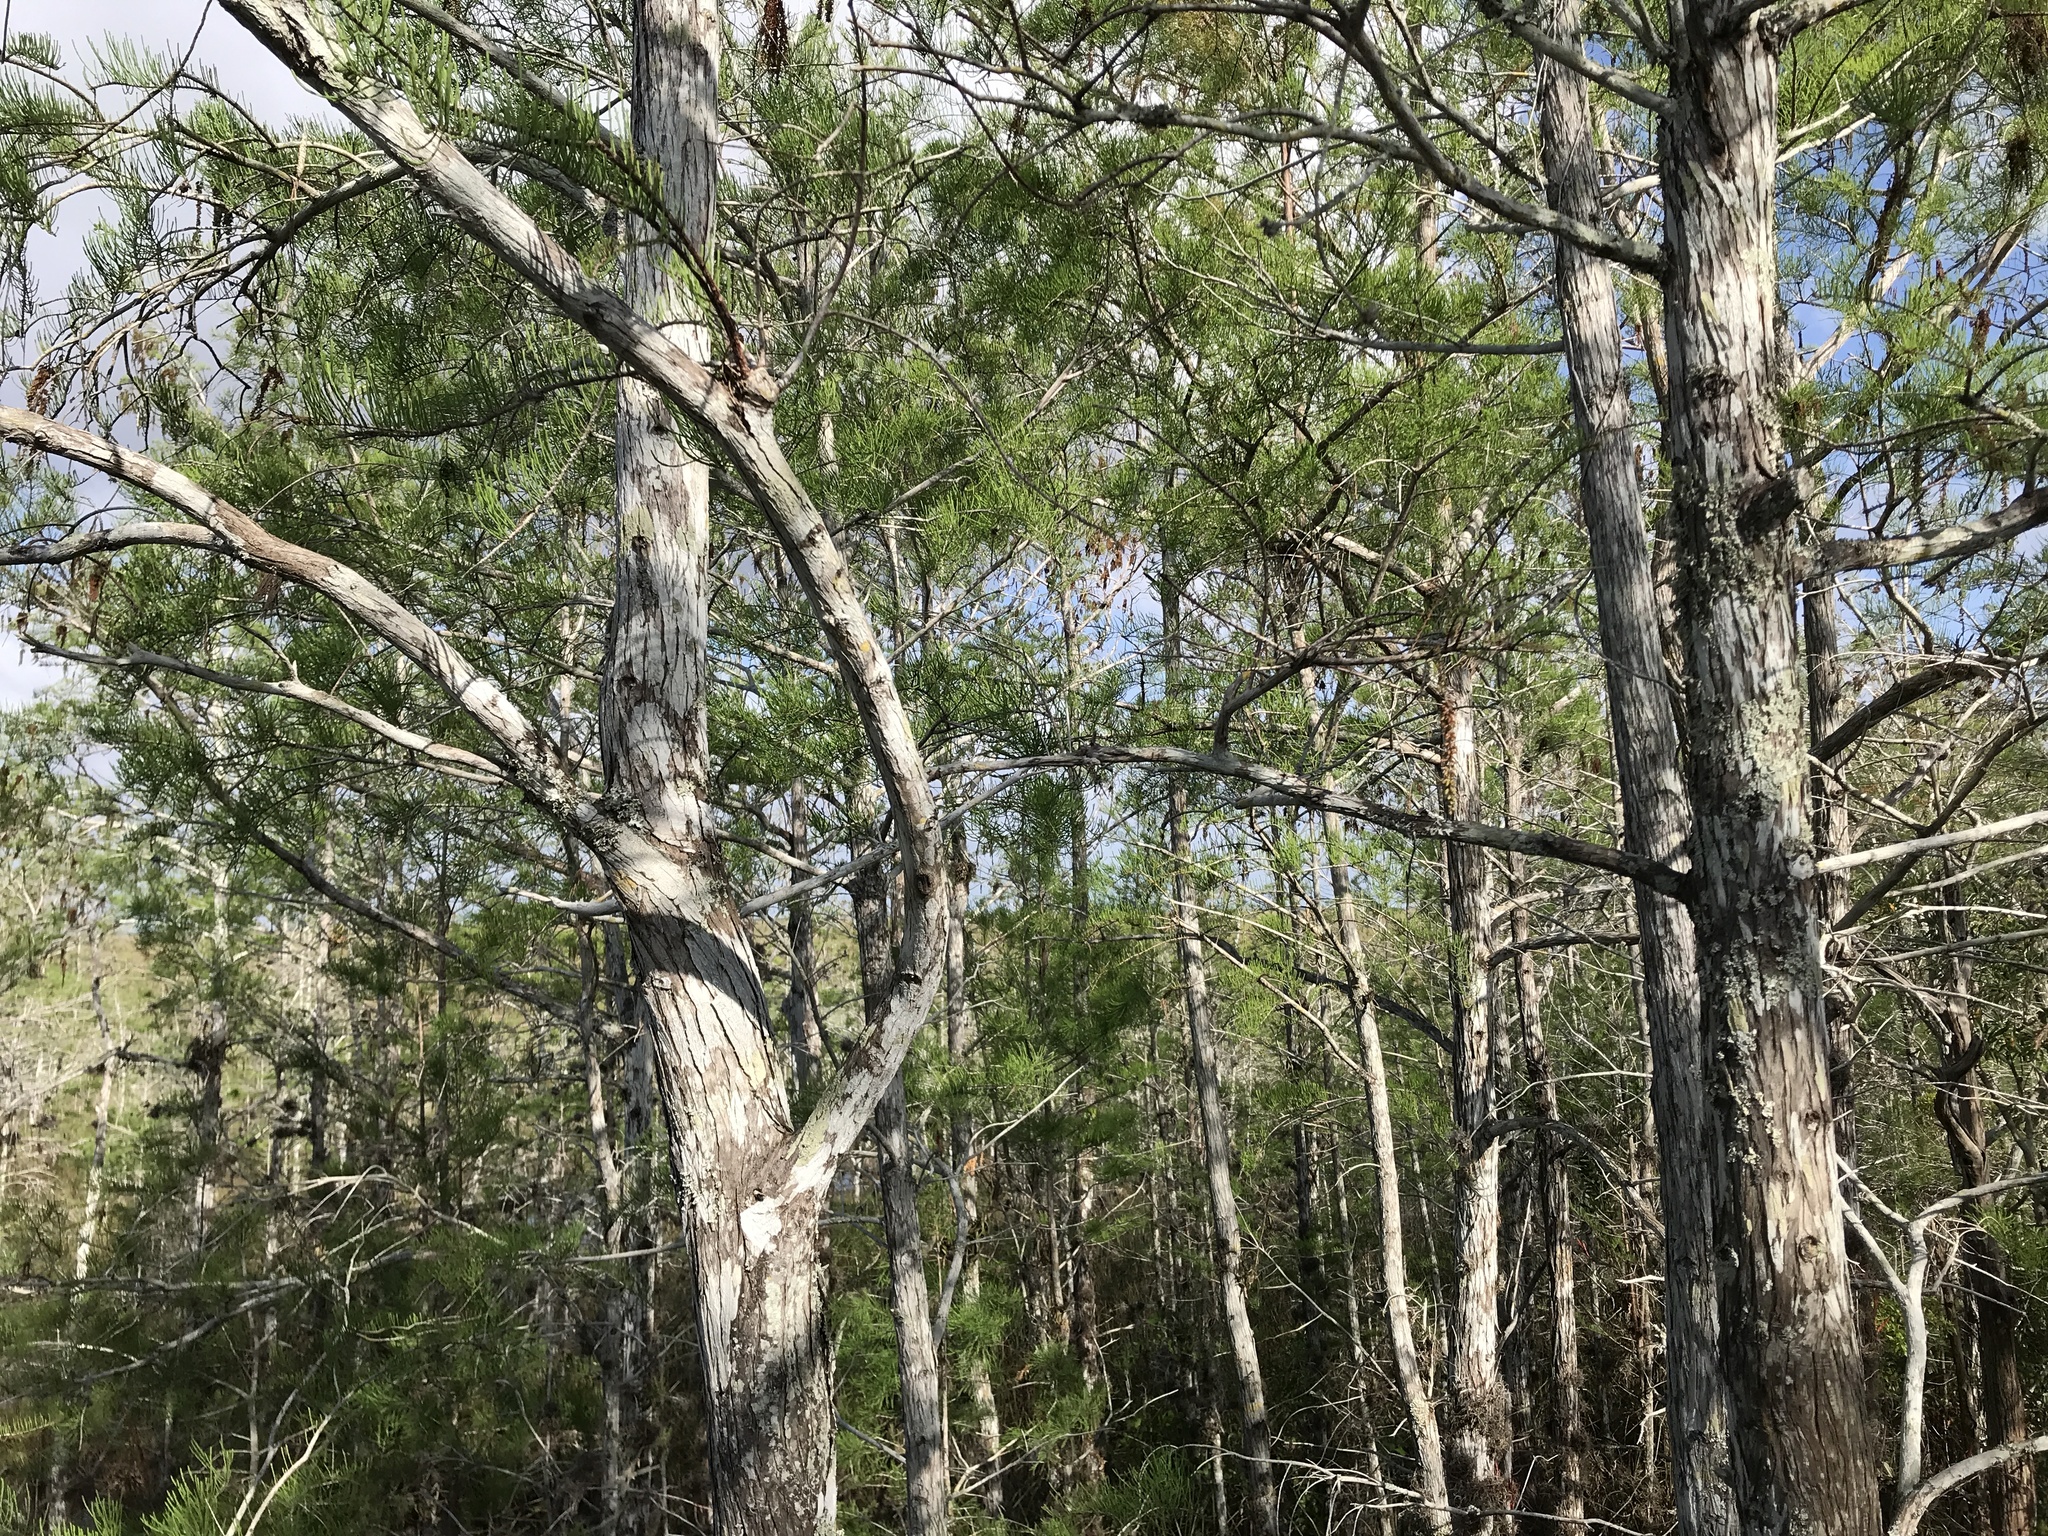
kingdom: Plantae
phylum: Tracheophyta
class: Pinopsida
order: Pinales
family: Cupressaceae
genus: Taxodium
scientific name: Taxodium distichum
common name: Bald cypress
